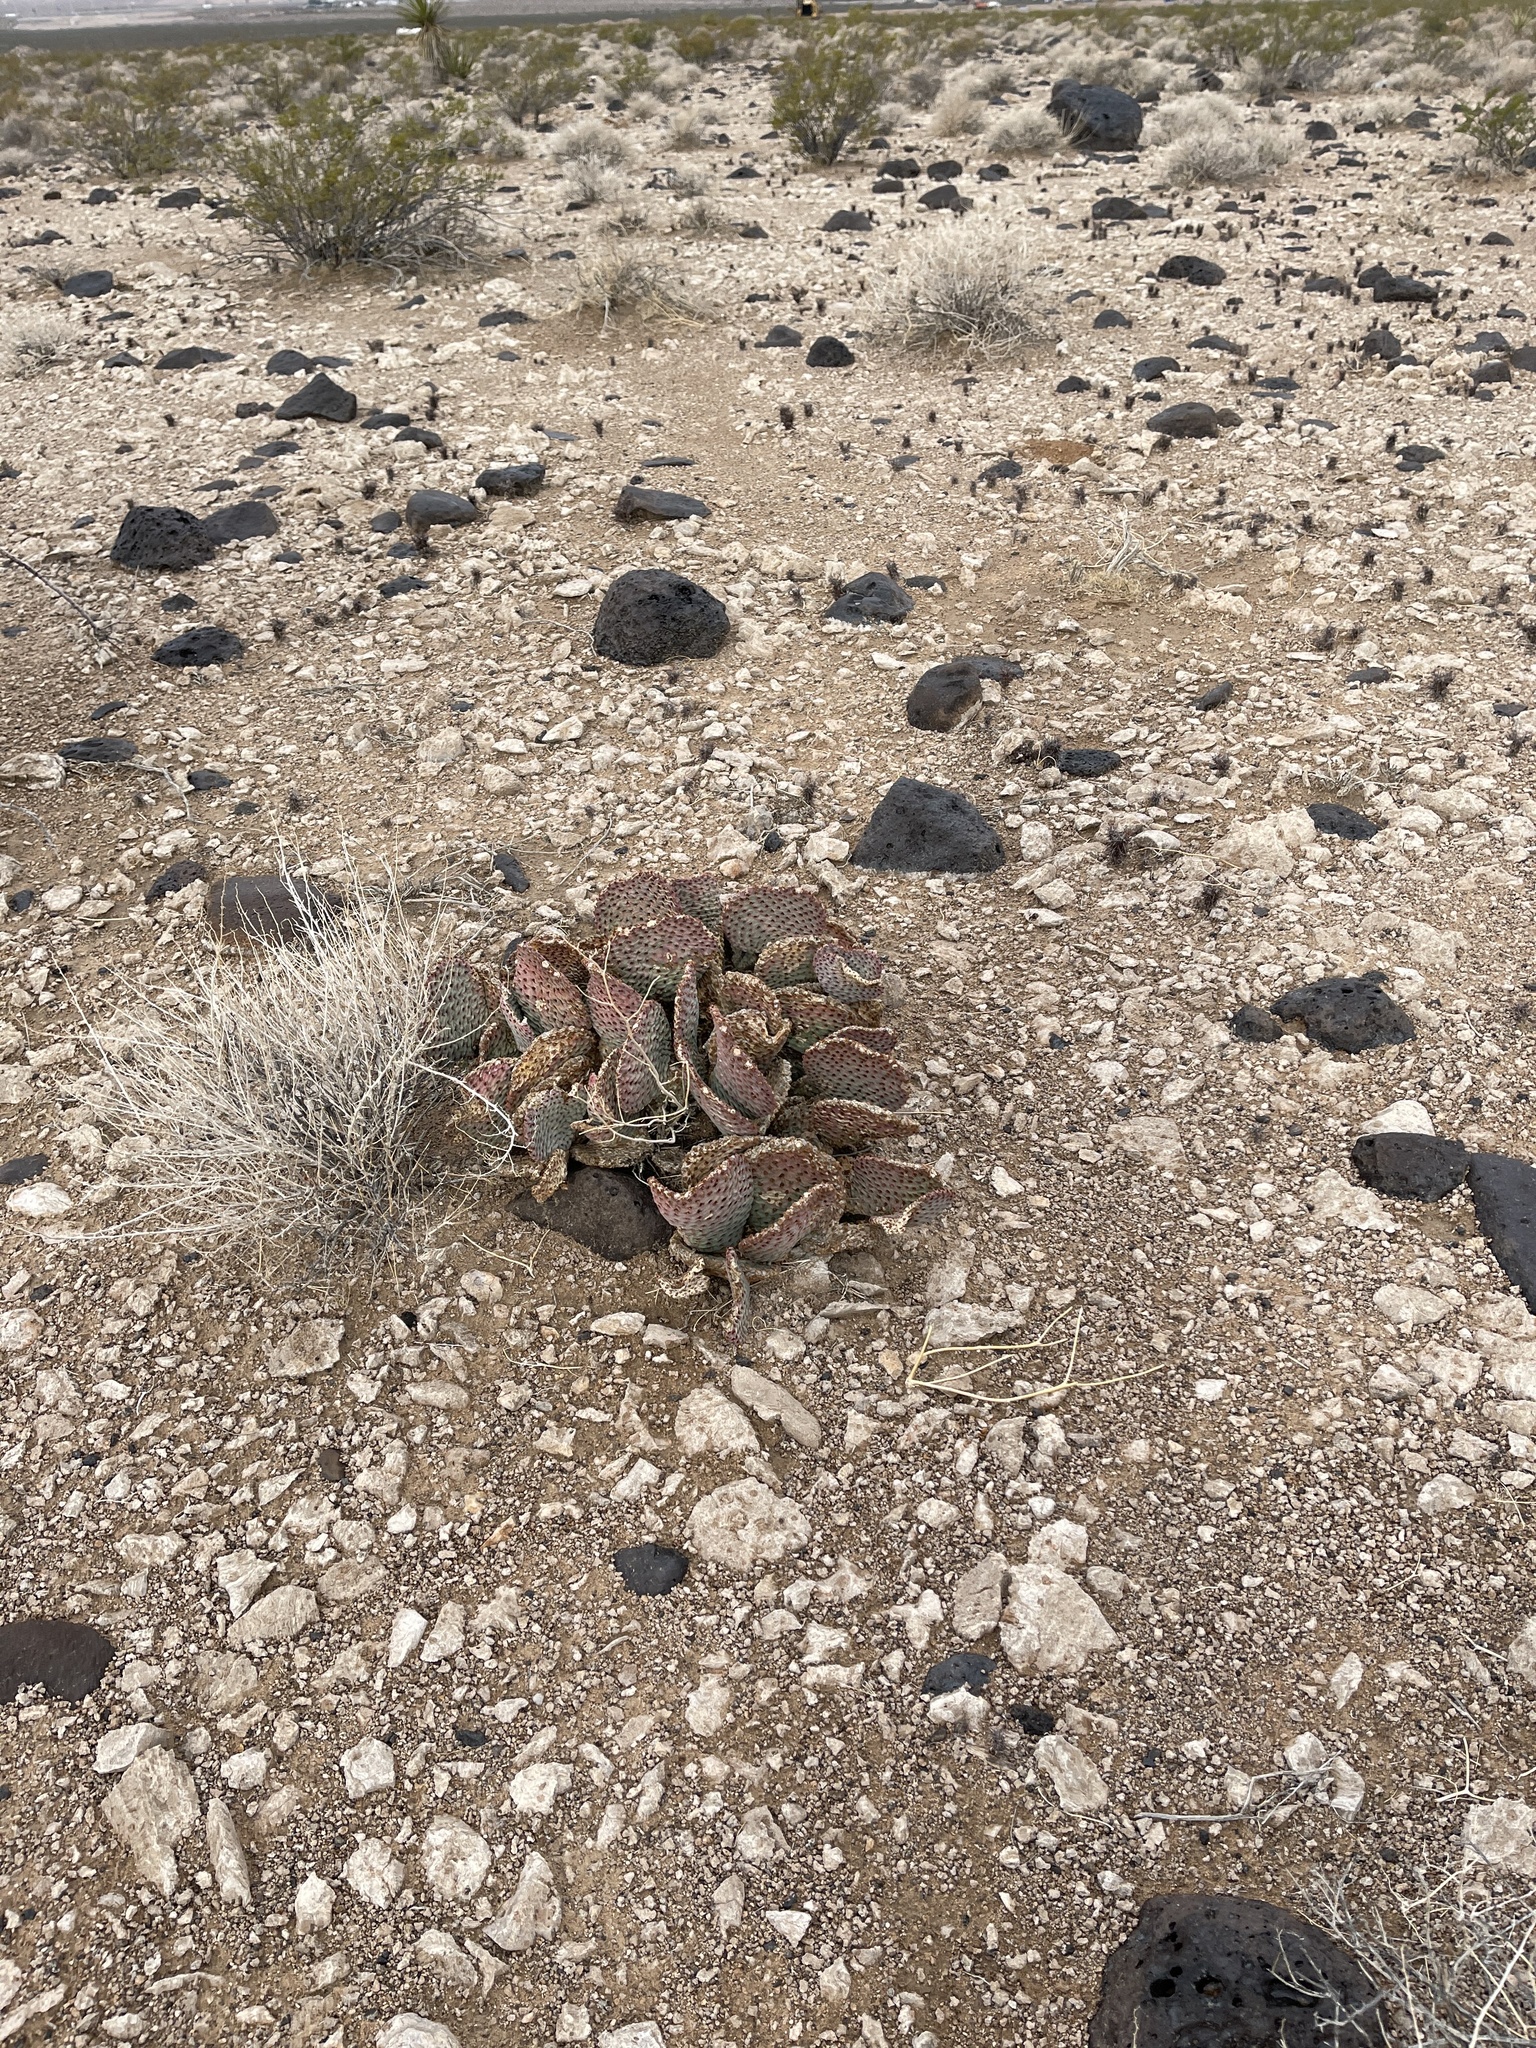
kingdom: Plantae
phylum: Tracheophyta
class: Magnoliopsida
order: Caryophyllales
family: Cactaceae
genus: Opuntia
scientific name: Opuntia basilaris
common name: Beavertail prickly-pear
